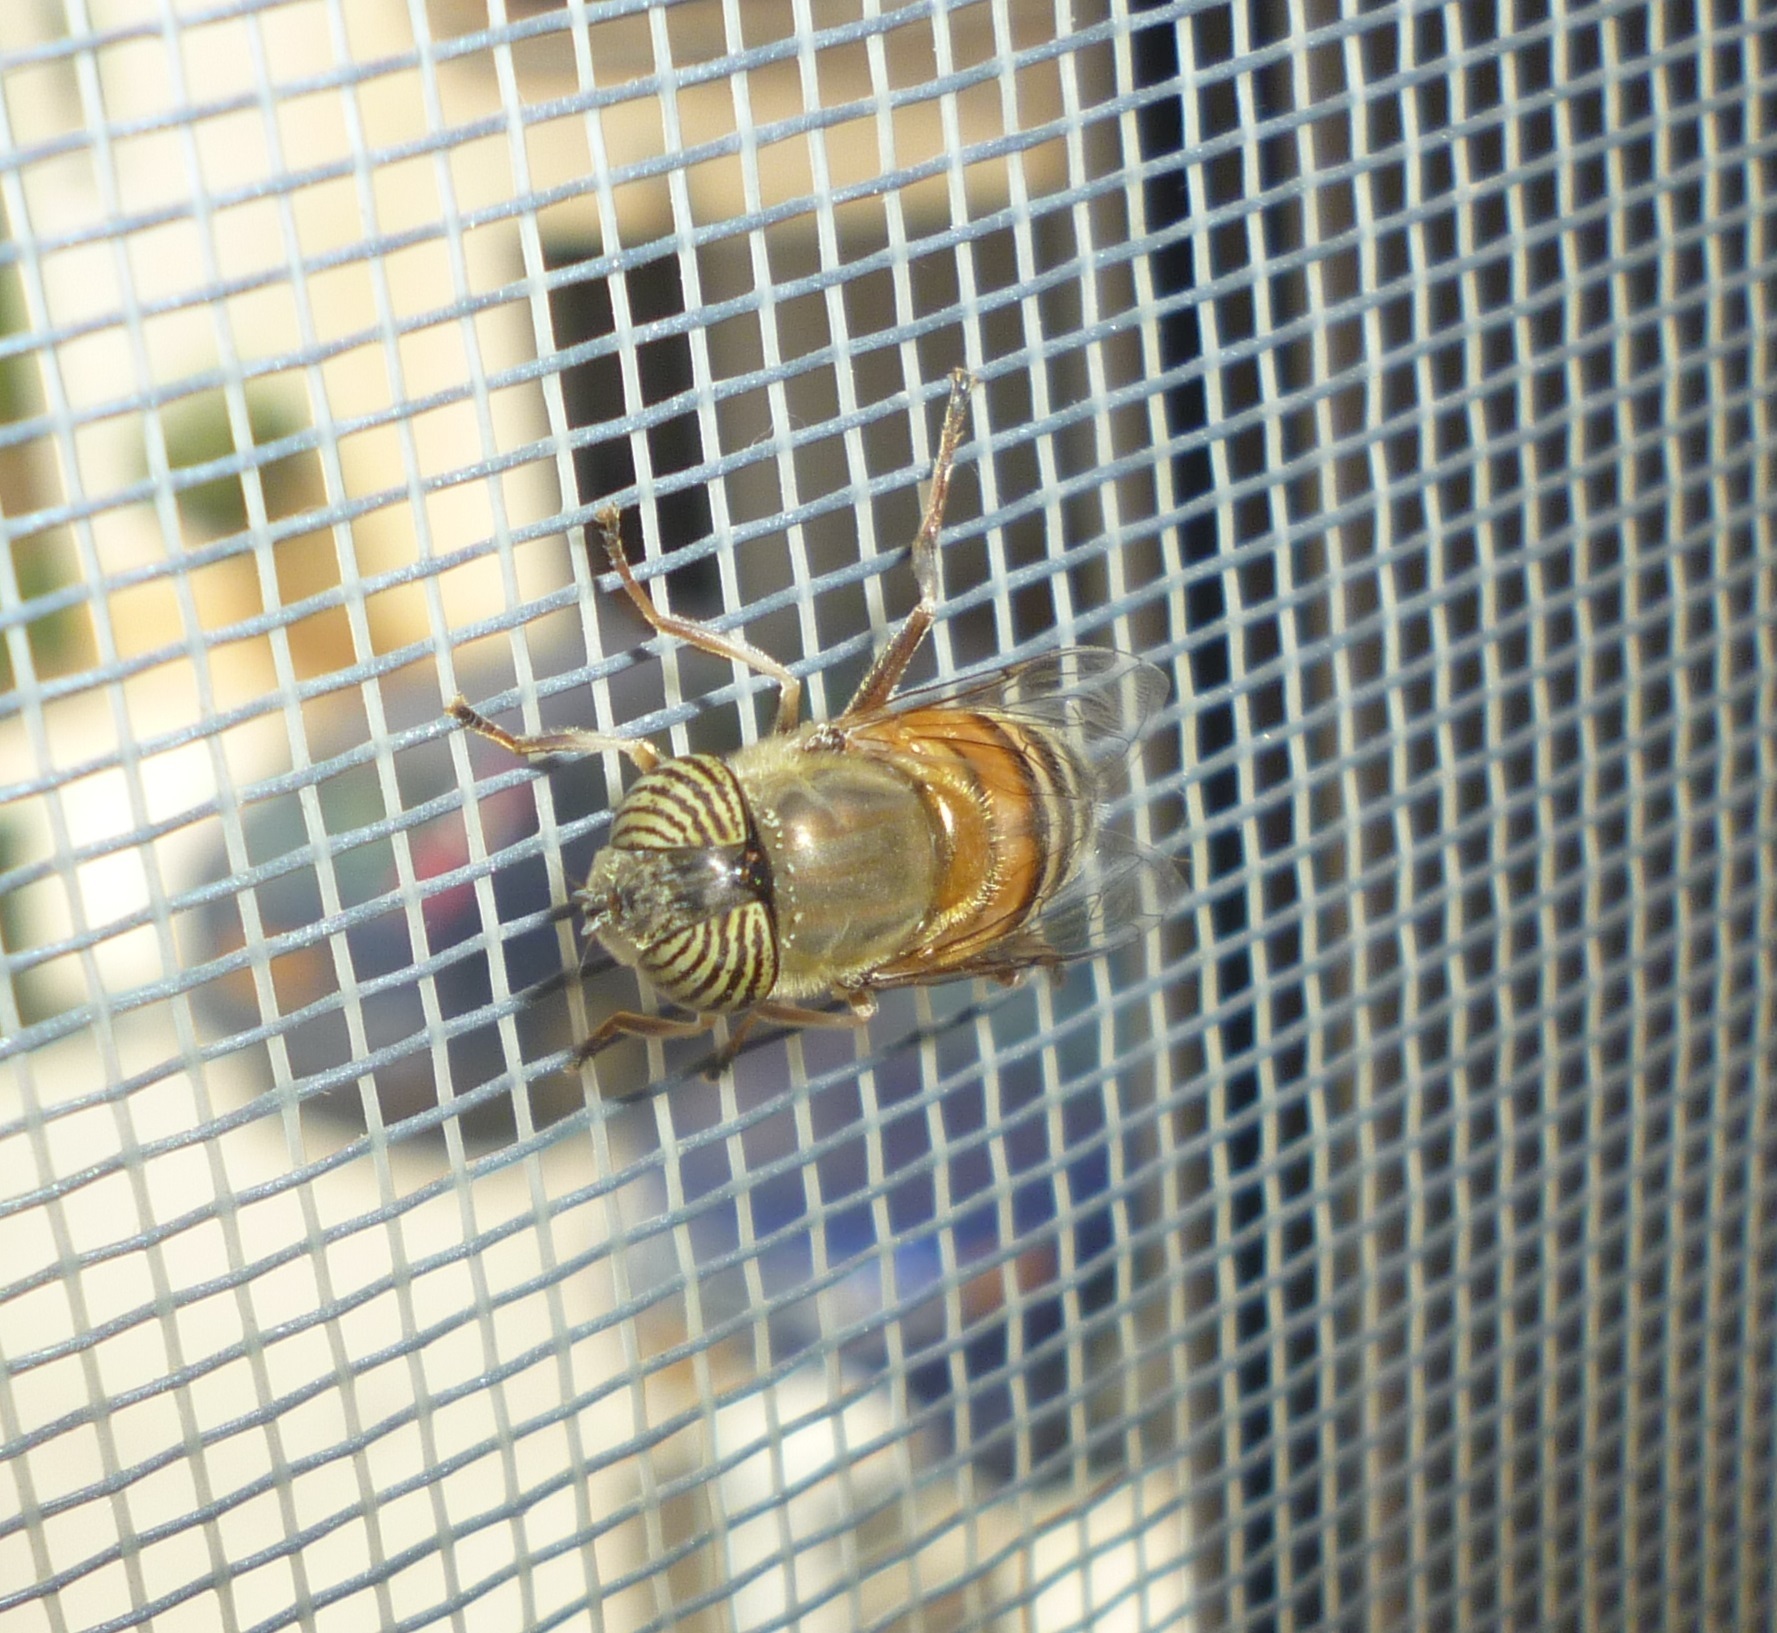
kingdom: Animalia
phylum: Arthropoda
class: Insecta
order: Diptera
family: Syrphidae
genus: Eristalinus
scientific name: Eristalinus taeniops
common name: Syrphid fly
